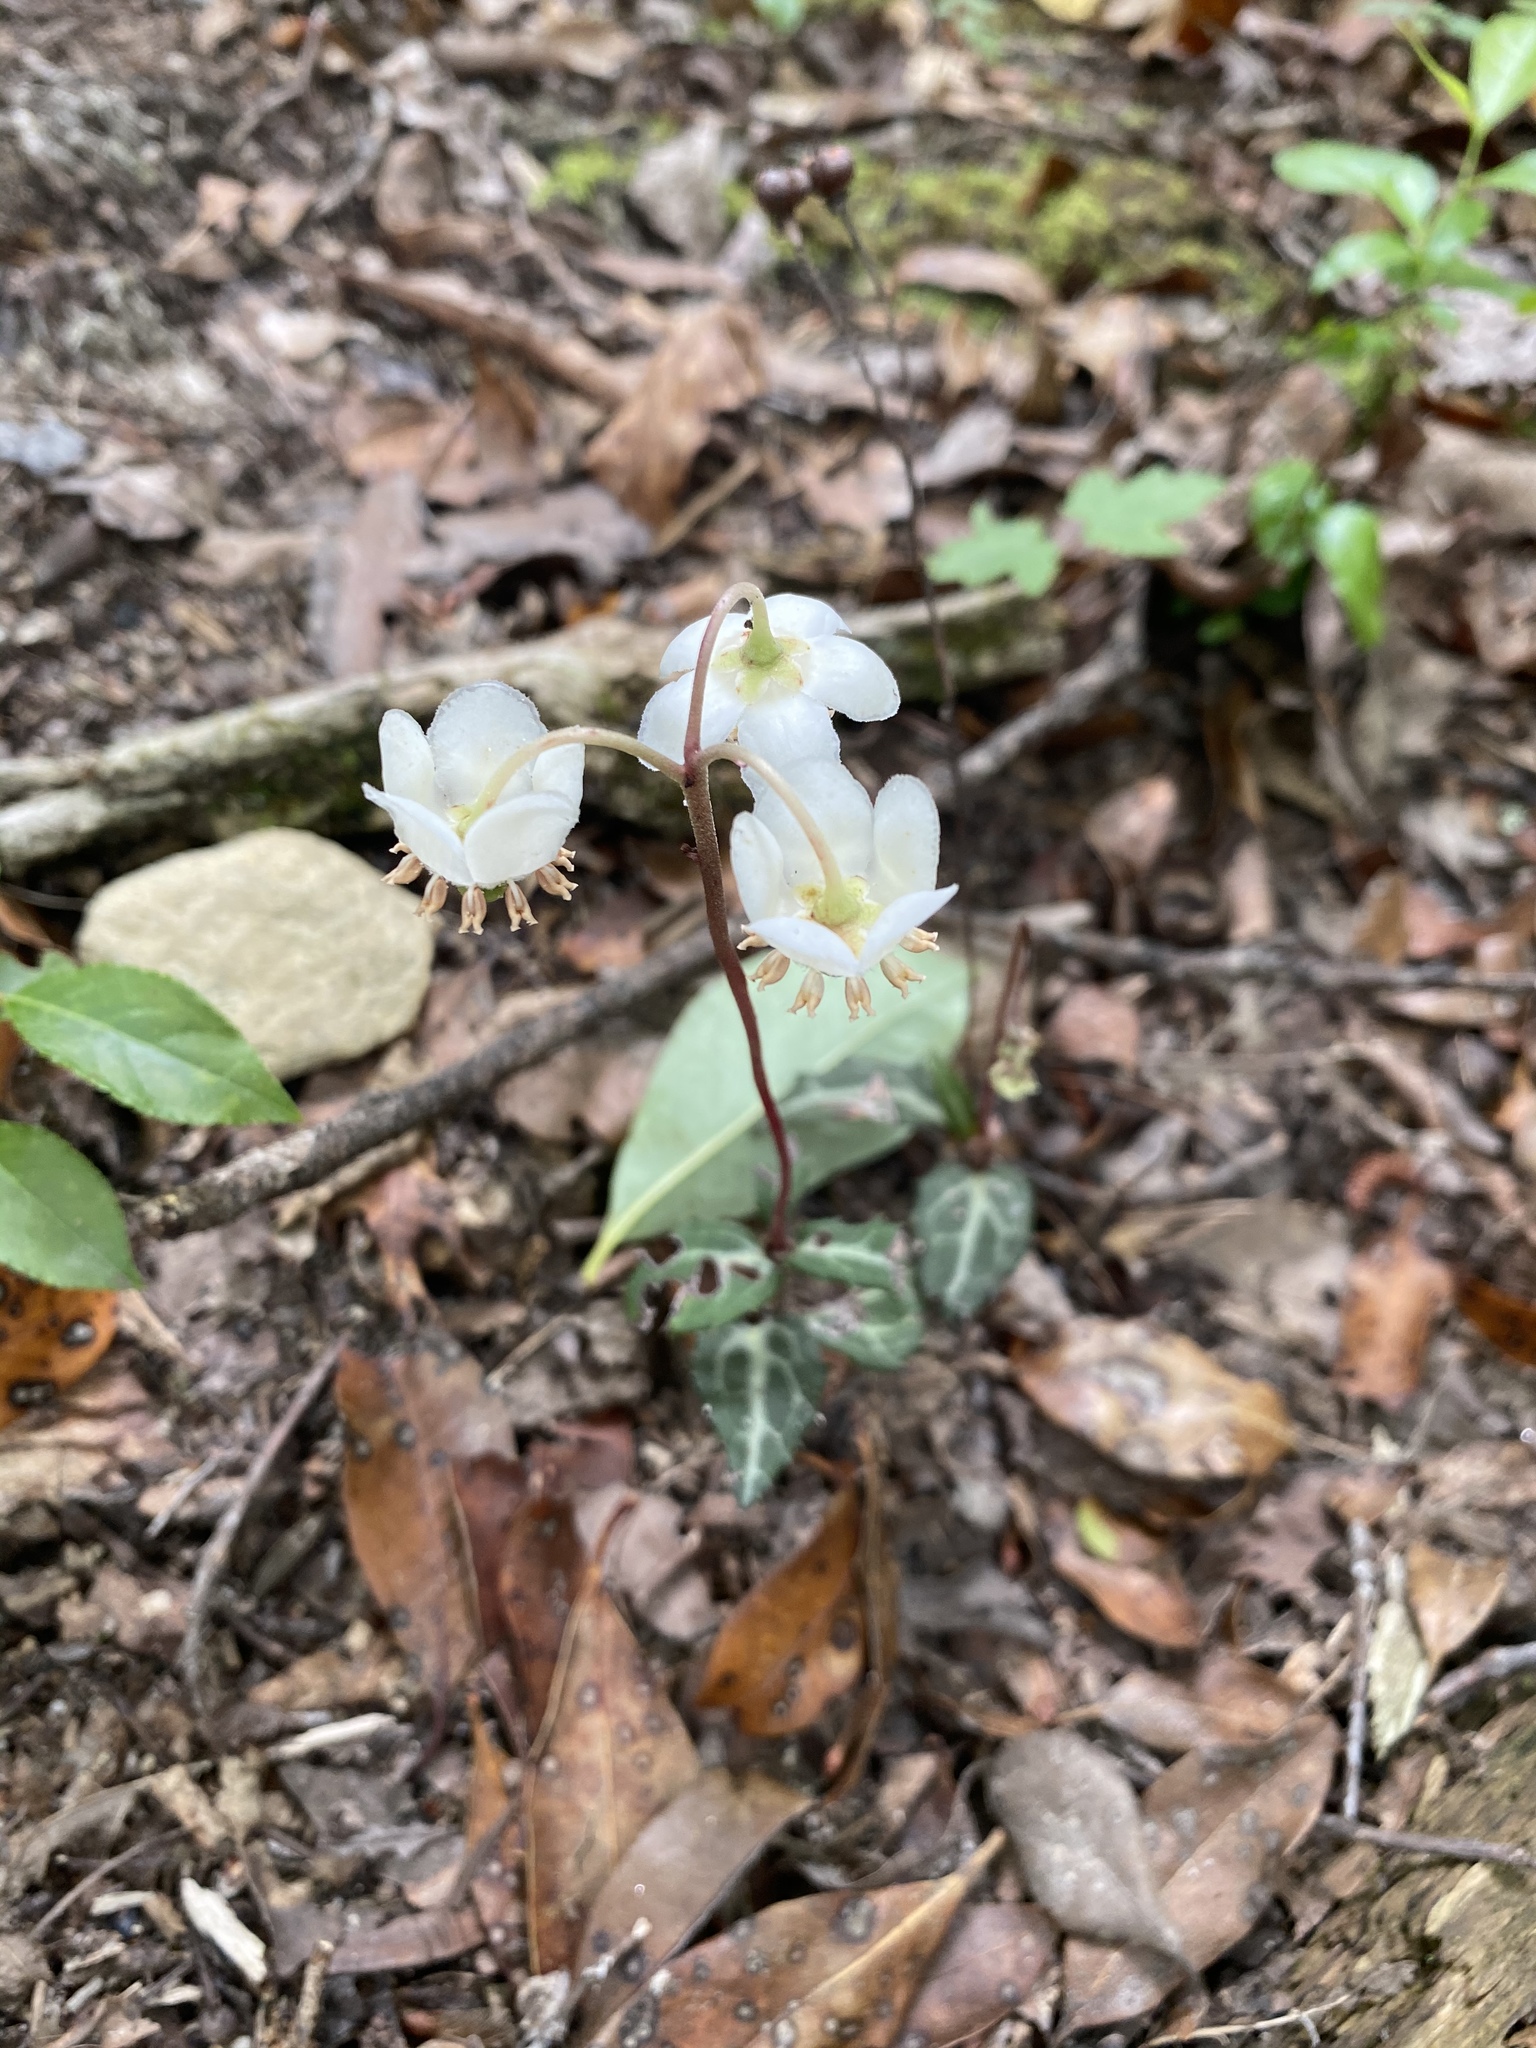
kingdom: Plantae
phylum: Tracheophyta
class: Magnoliopsida
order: Ericales
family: Ericaceae
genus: Chimaphila
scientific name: Chimaphila maculata
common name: Spotted pipsissewa
